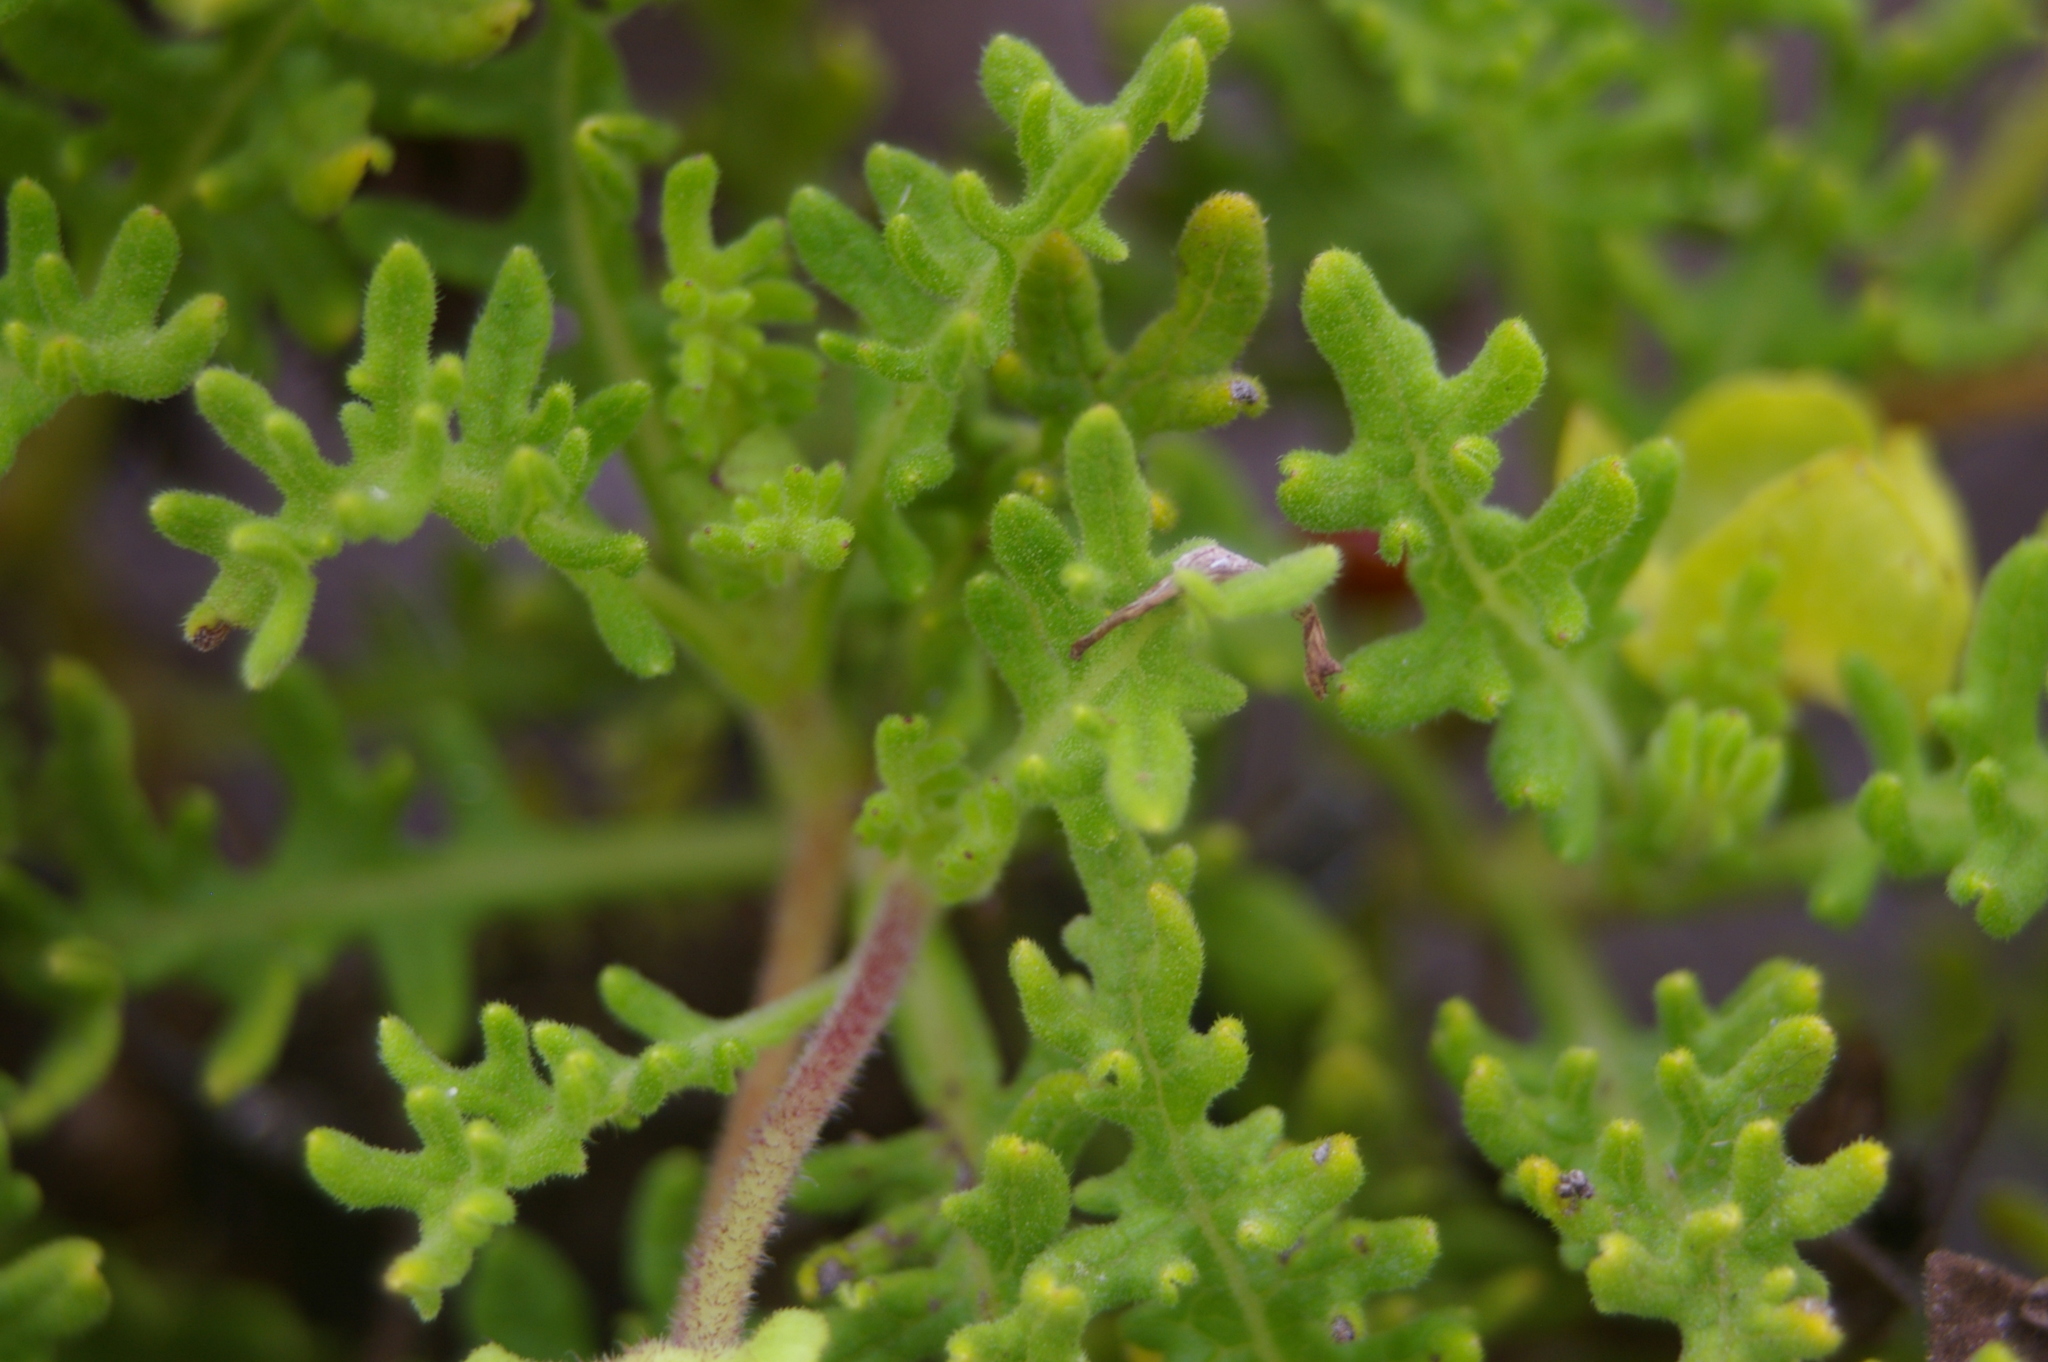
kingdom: Plantae
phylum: Tracheophyta
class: Magnoliopsida
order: Asterales
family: Asteraceae
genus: Lecocarpus
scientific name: Lecocarpus pinnatifidus
